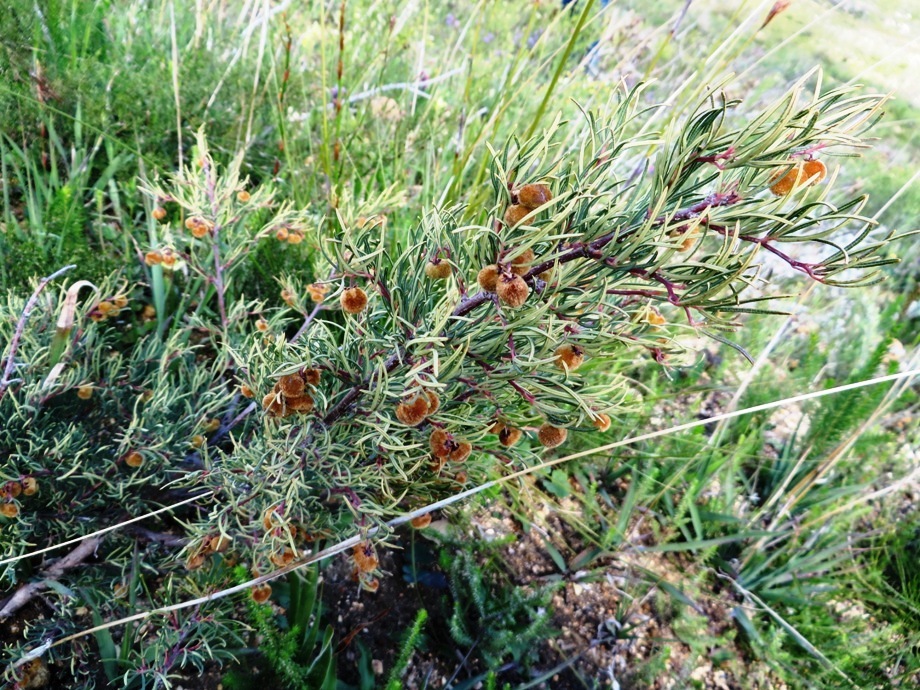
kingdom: Plantae
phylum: Tracheophyta
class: Magnoliopsida
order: Sapindales
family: Anacardiaceae
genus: Searsia
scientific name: Searsia rosmarinifolia
